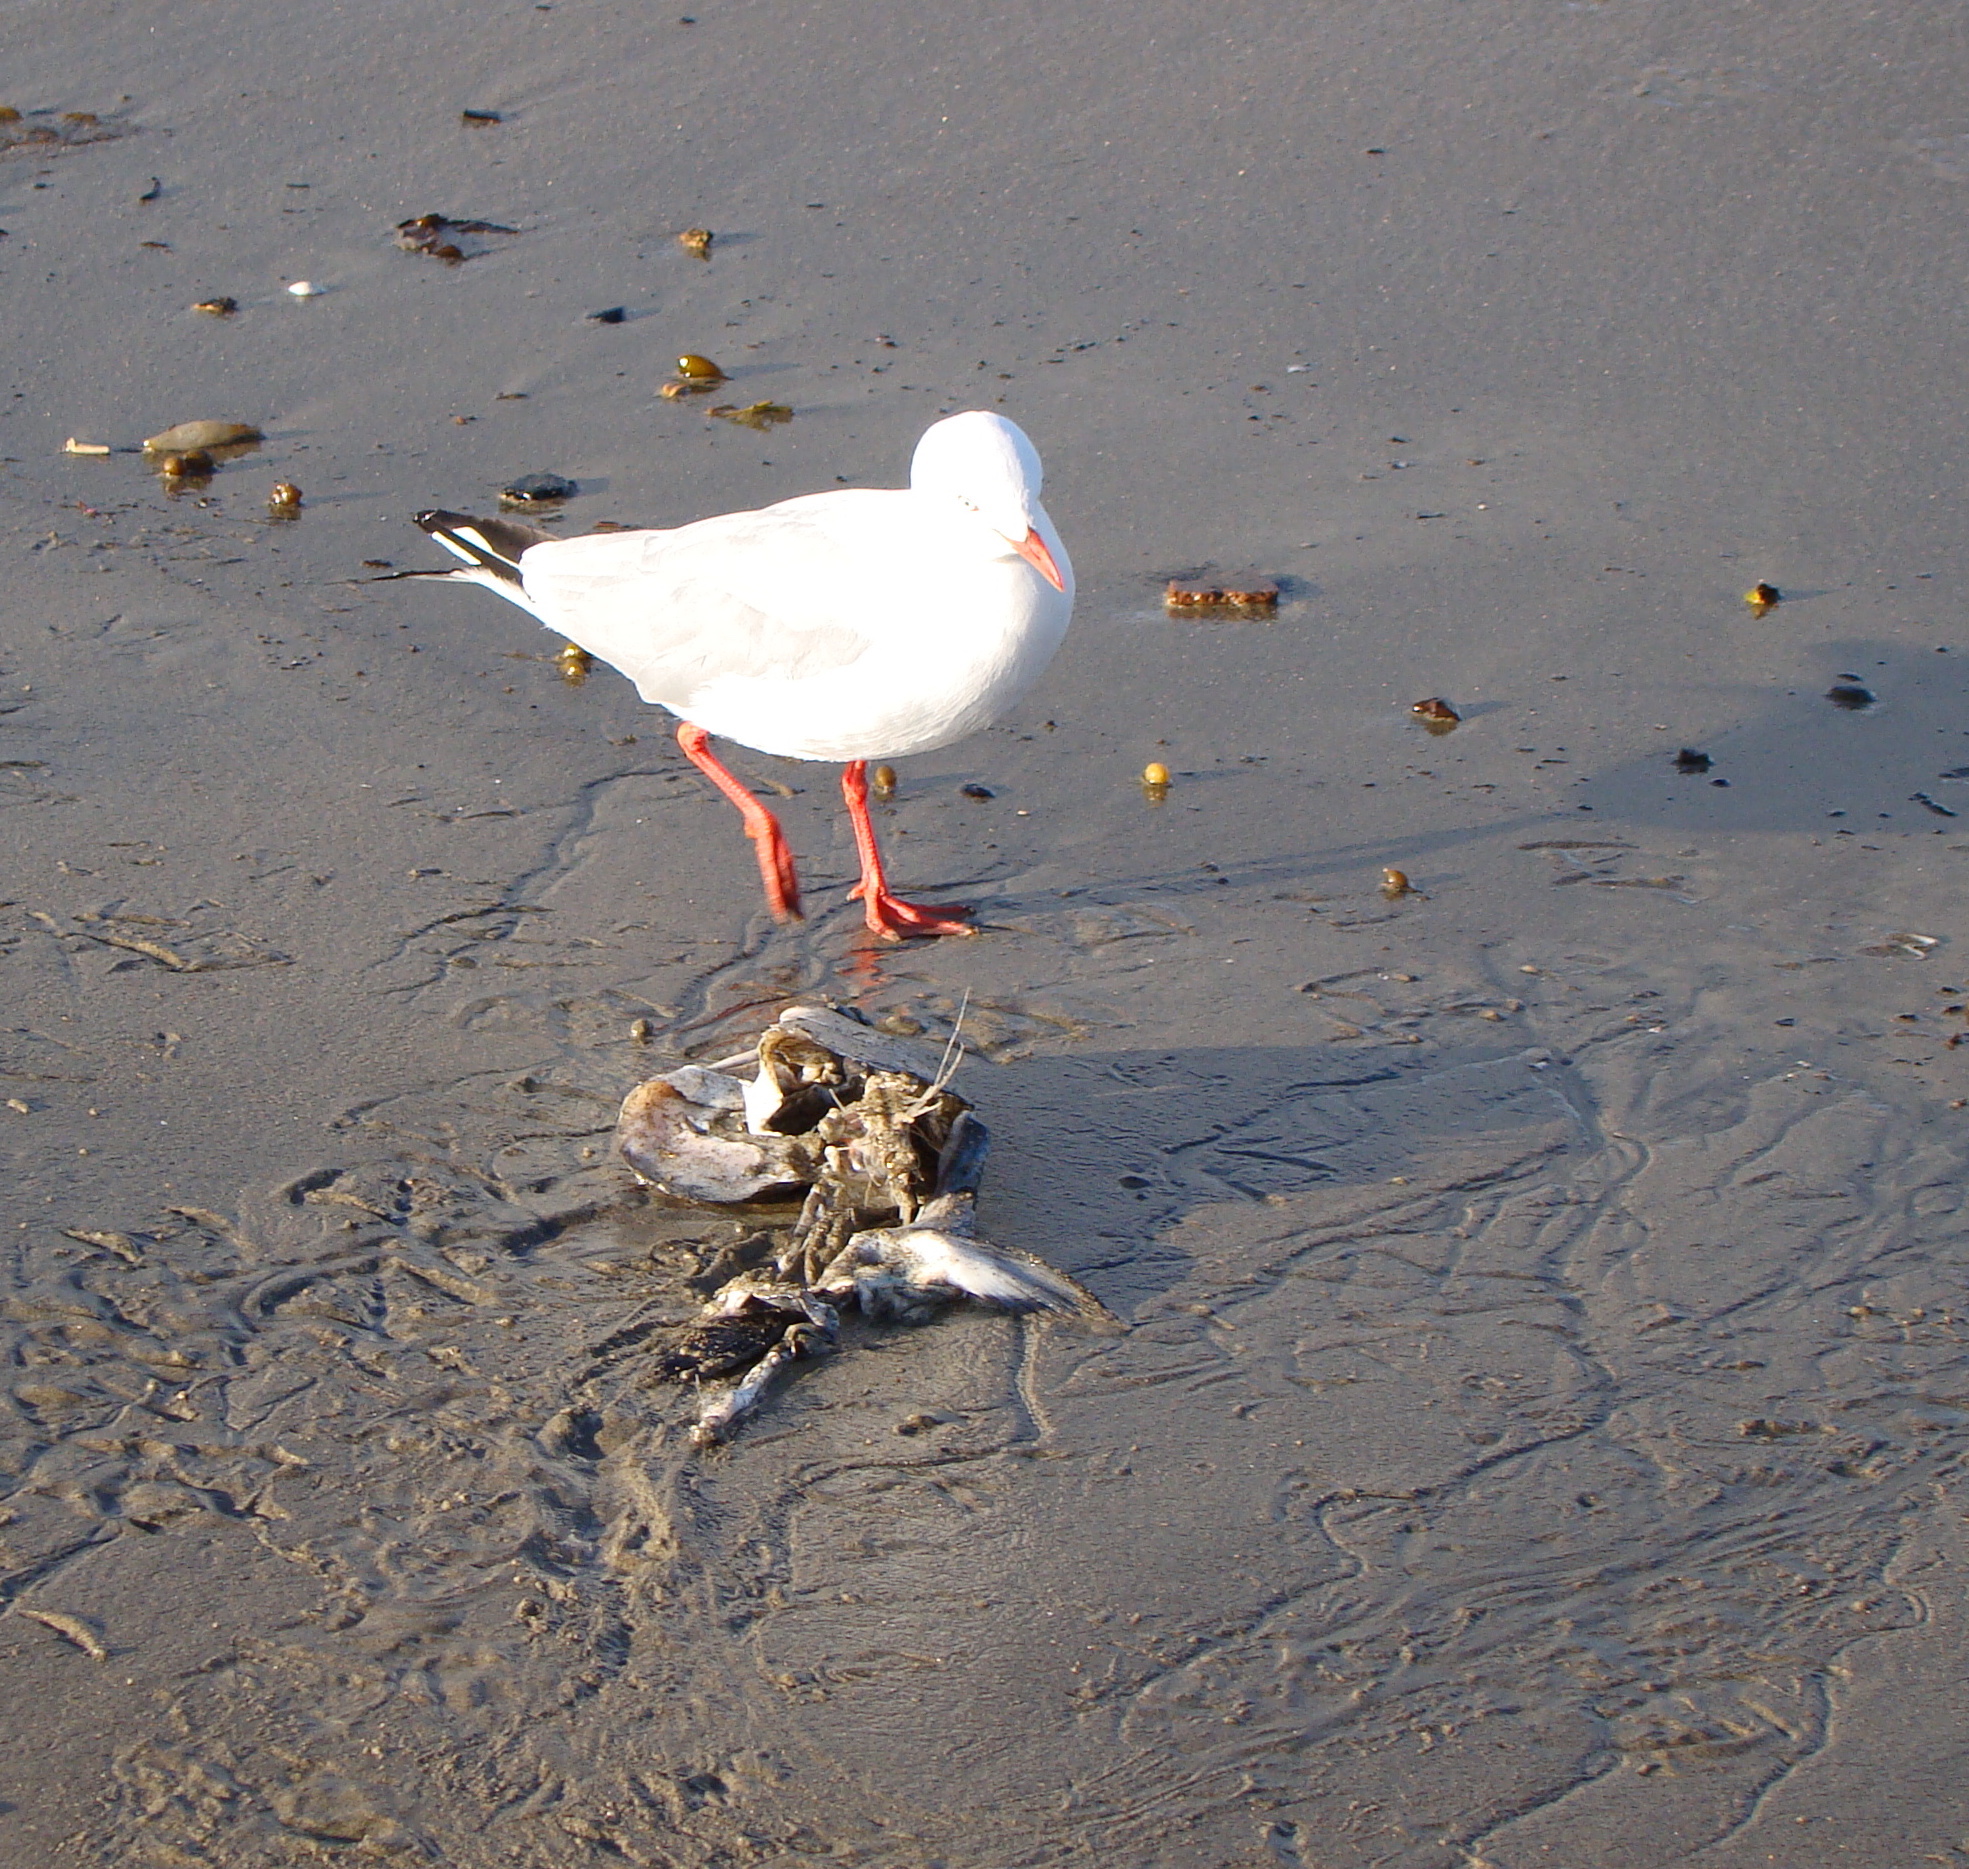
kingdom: Animalia
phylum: Chordata
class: Aves
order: Charadriiformes
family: Laridae
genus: Chroicocephalus
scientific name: Chroicocephalus novaehollandiae
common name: Silver gull
